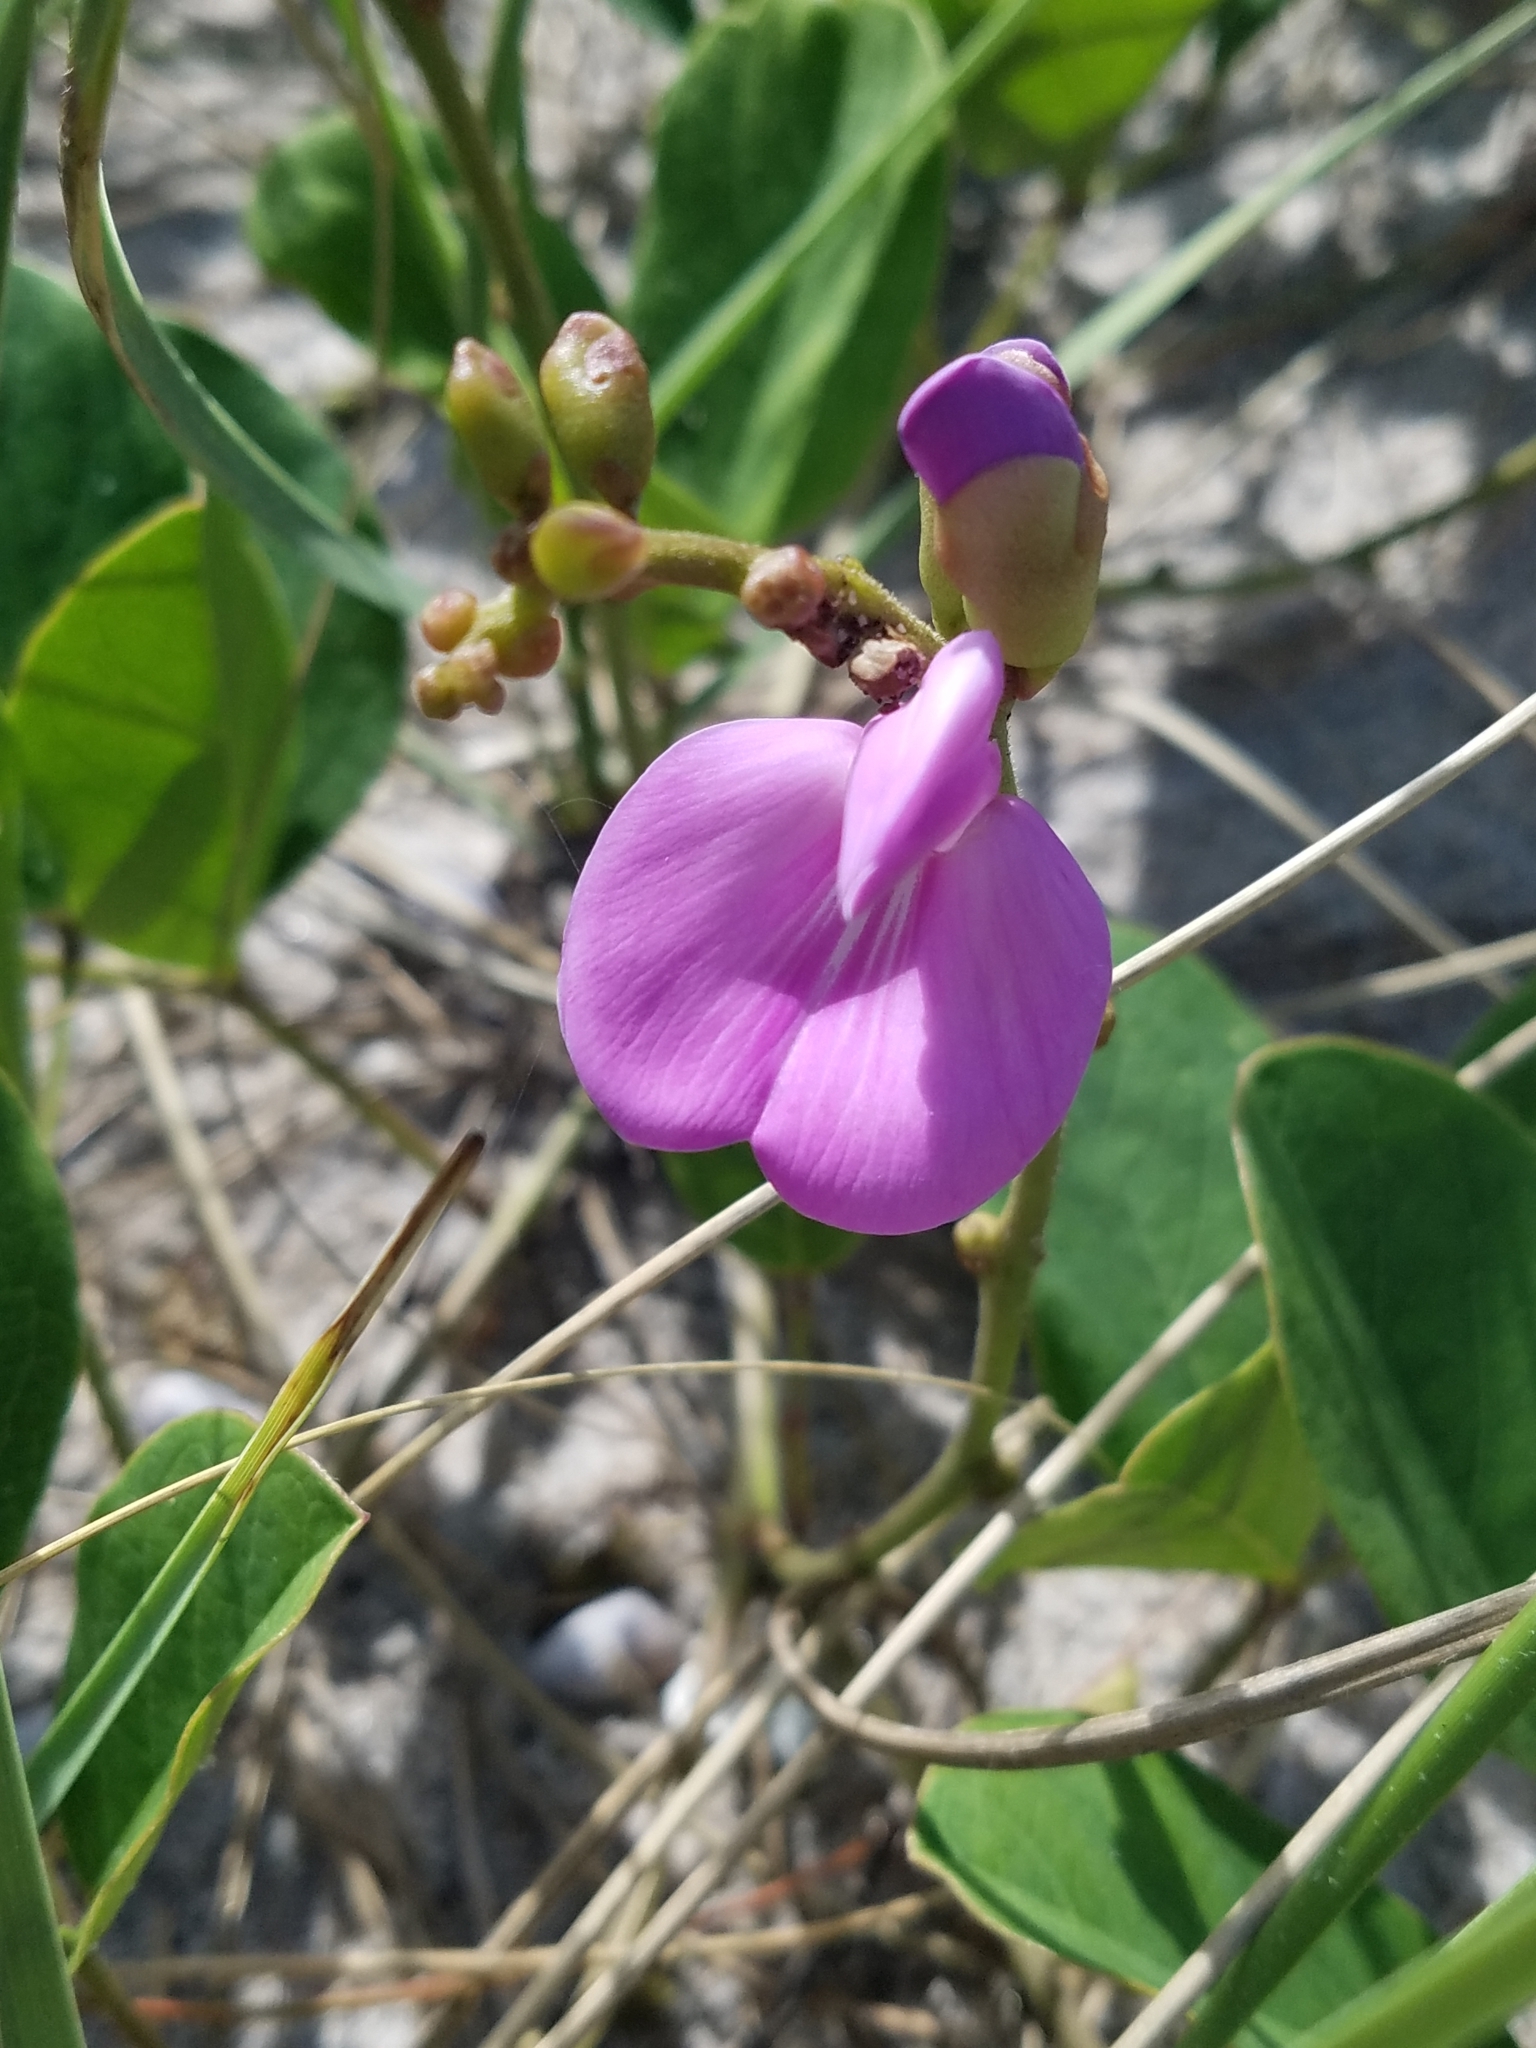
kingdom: Plantae
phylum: Tracheophyta
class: Magnoliopsida
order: Fabales
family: Fabaceae
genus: Canavalia
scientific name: Canavalia rosea
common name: Beach-bean
